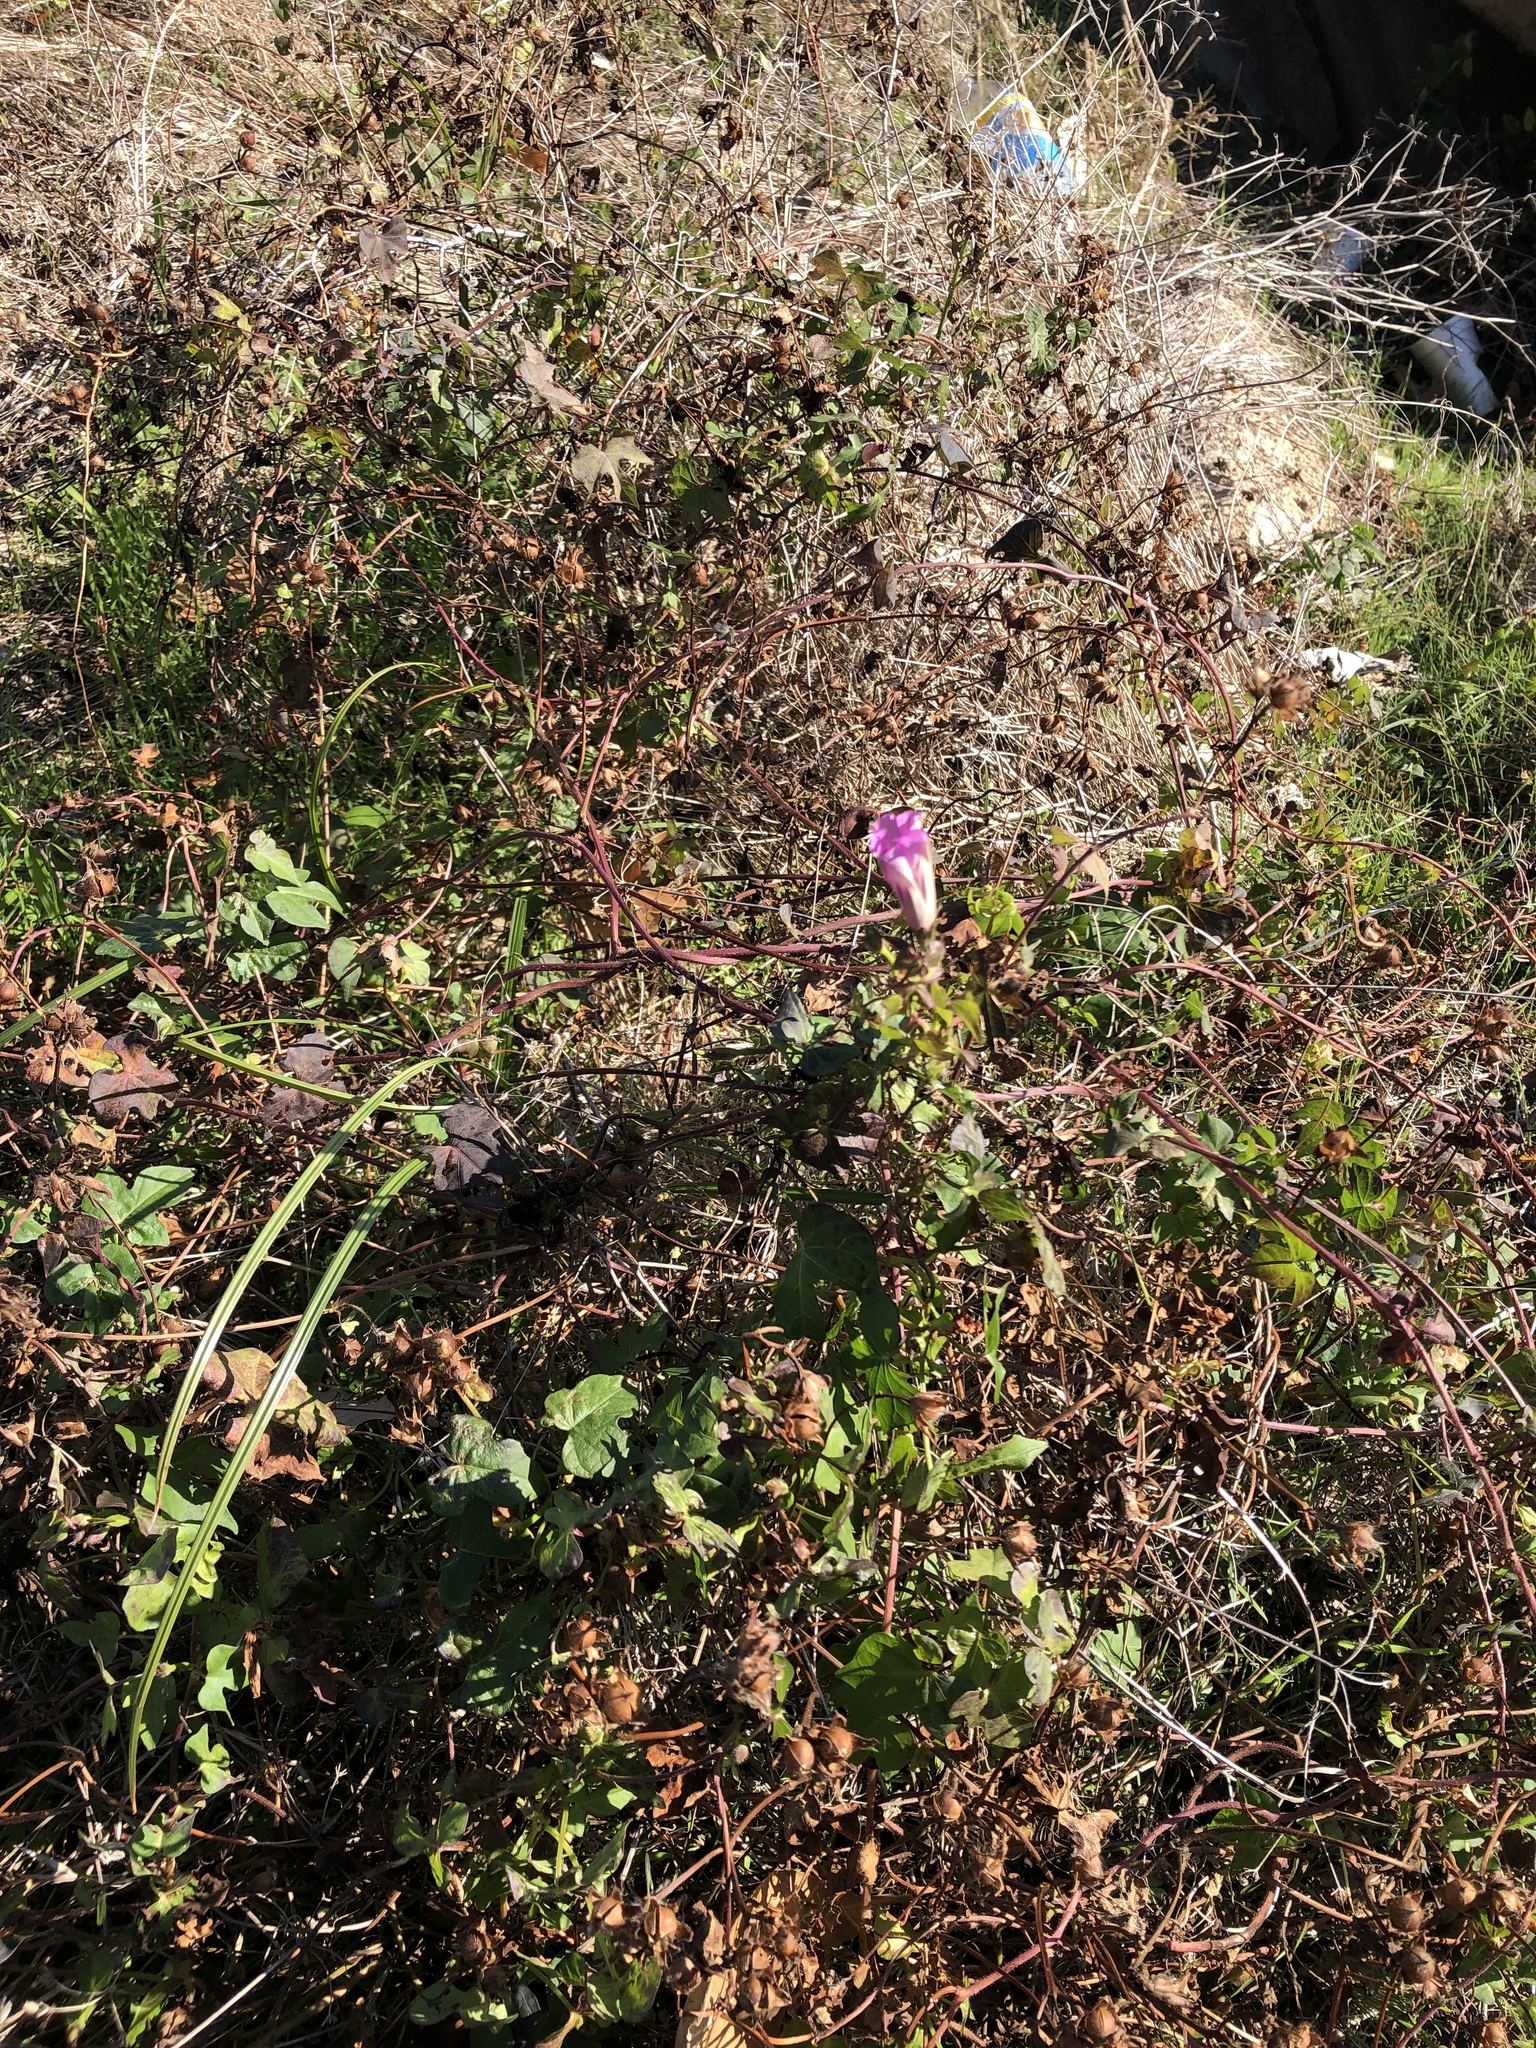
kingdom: Plantae
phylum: Tracheophyta
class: Magnoliopsida
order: Solanales
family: Convolvulaceae
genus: Ipomoea
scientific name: Ipomoea cordatotriloba
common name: Cotton morning glory
